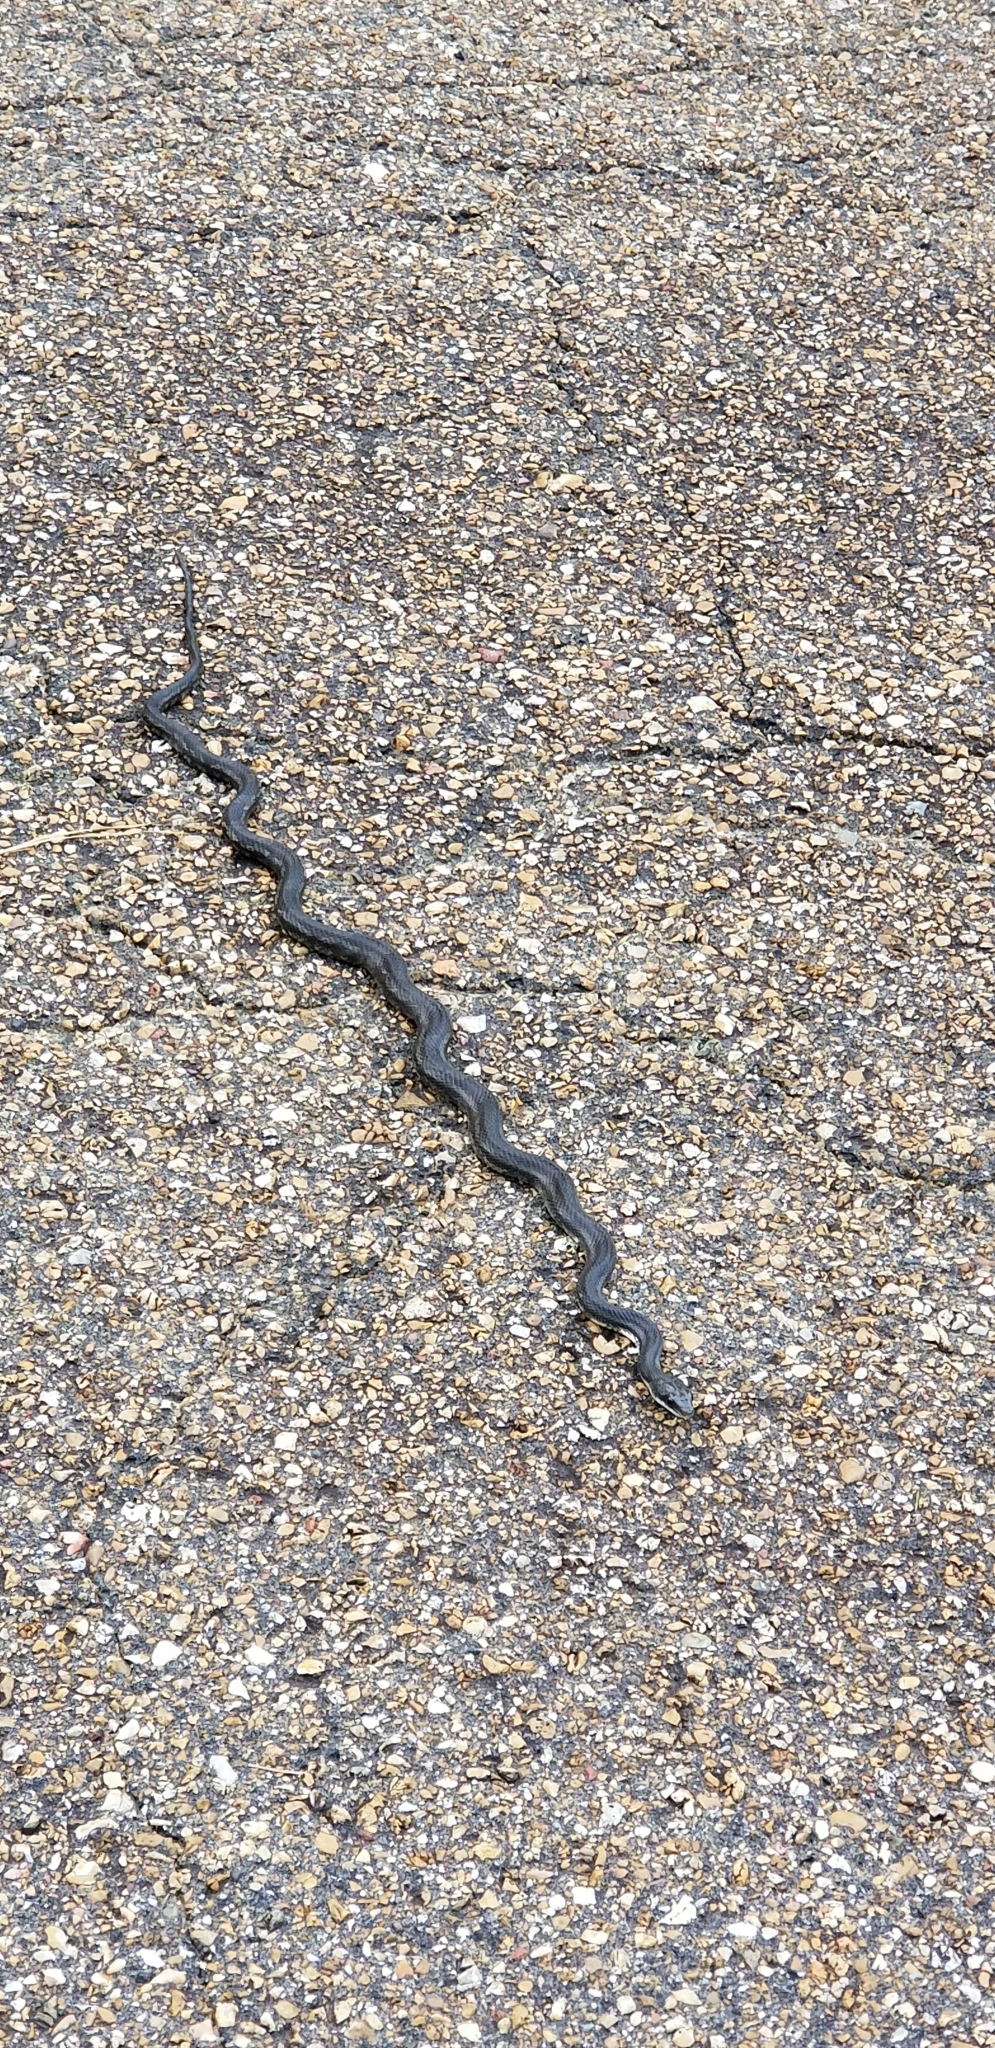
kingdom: Animalia
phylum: Chordata
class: Squamata
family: Colubridae
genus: Pantherophis
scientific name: Pantherophis obsoletus
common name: Black rat snake
